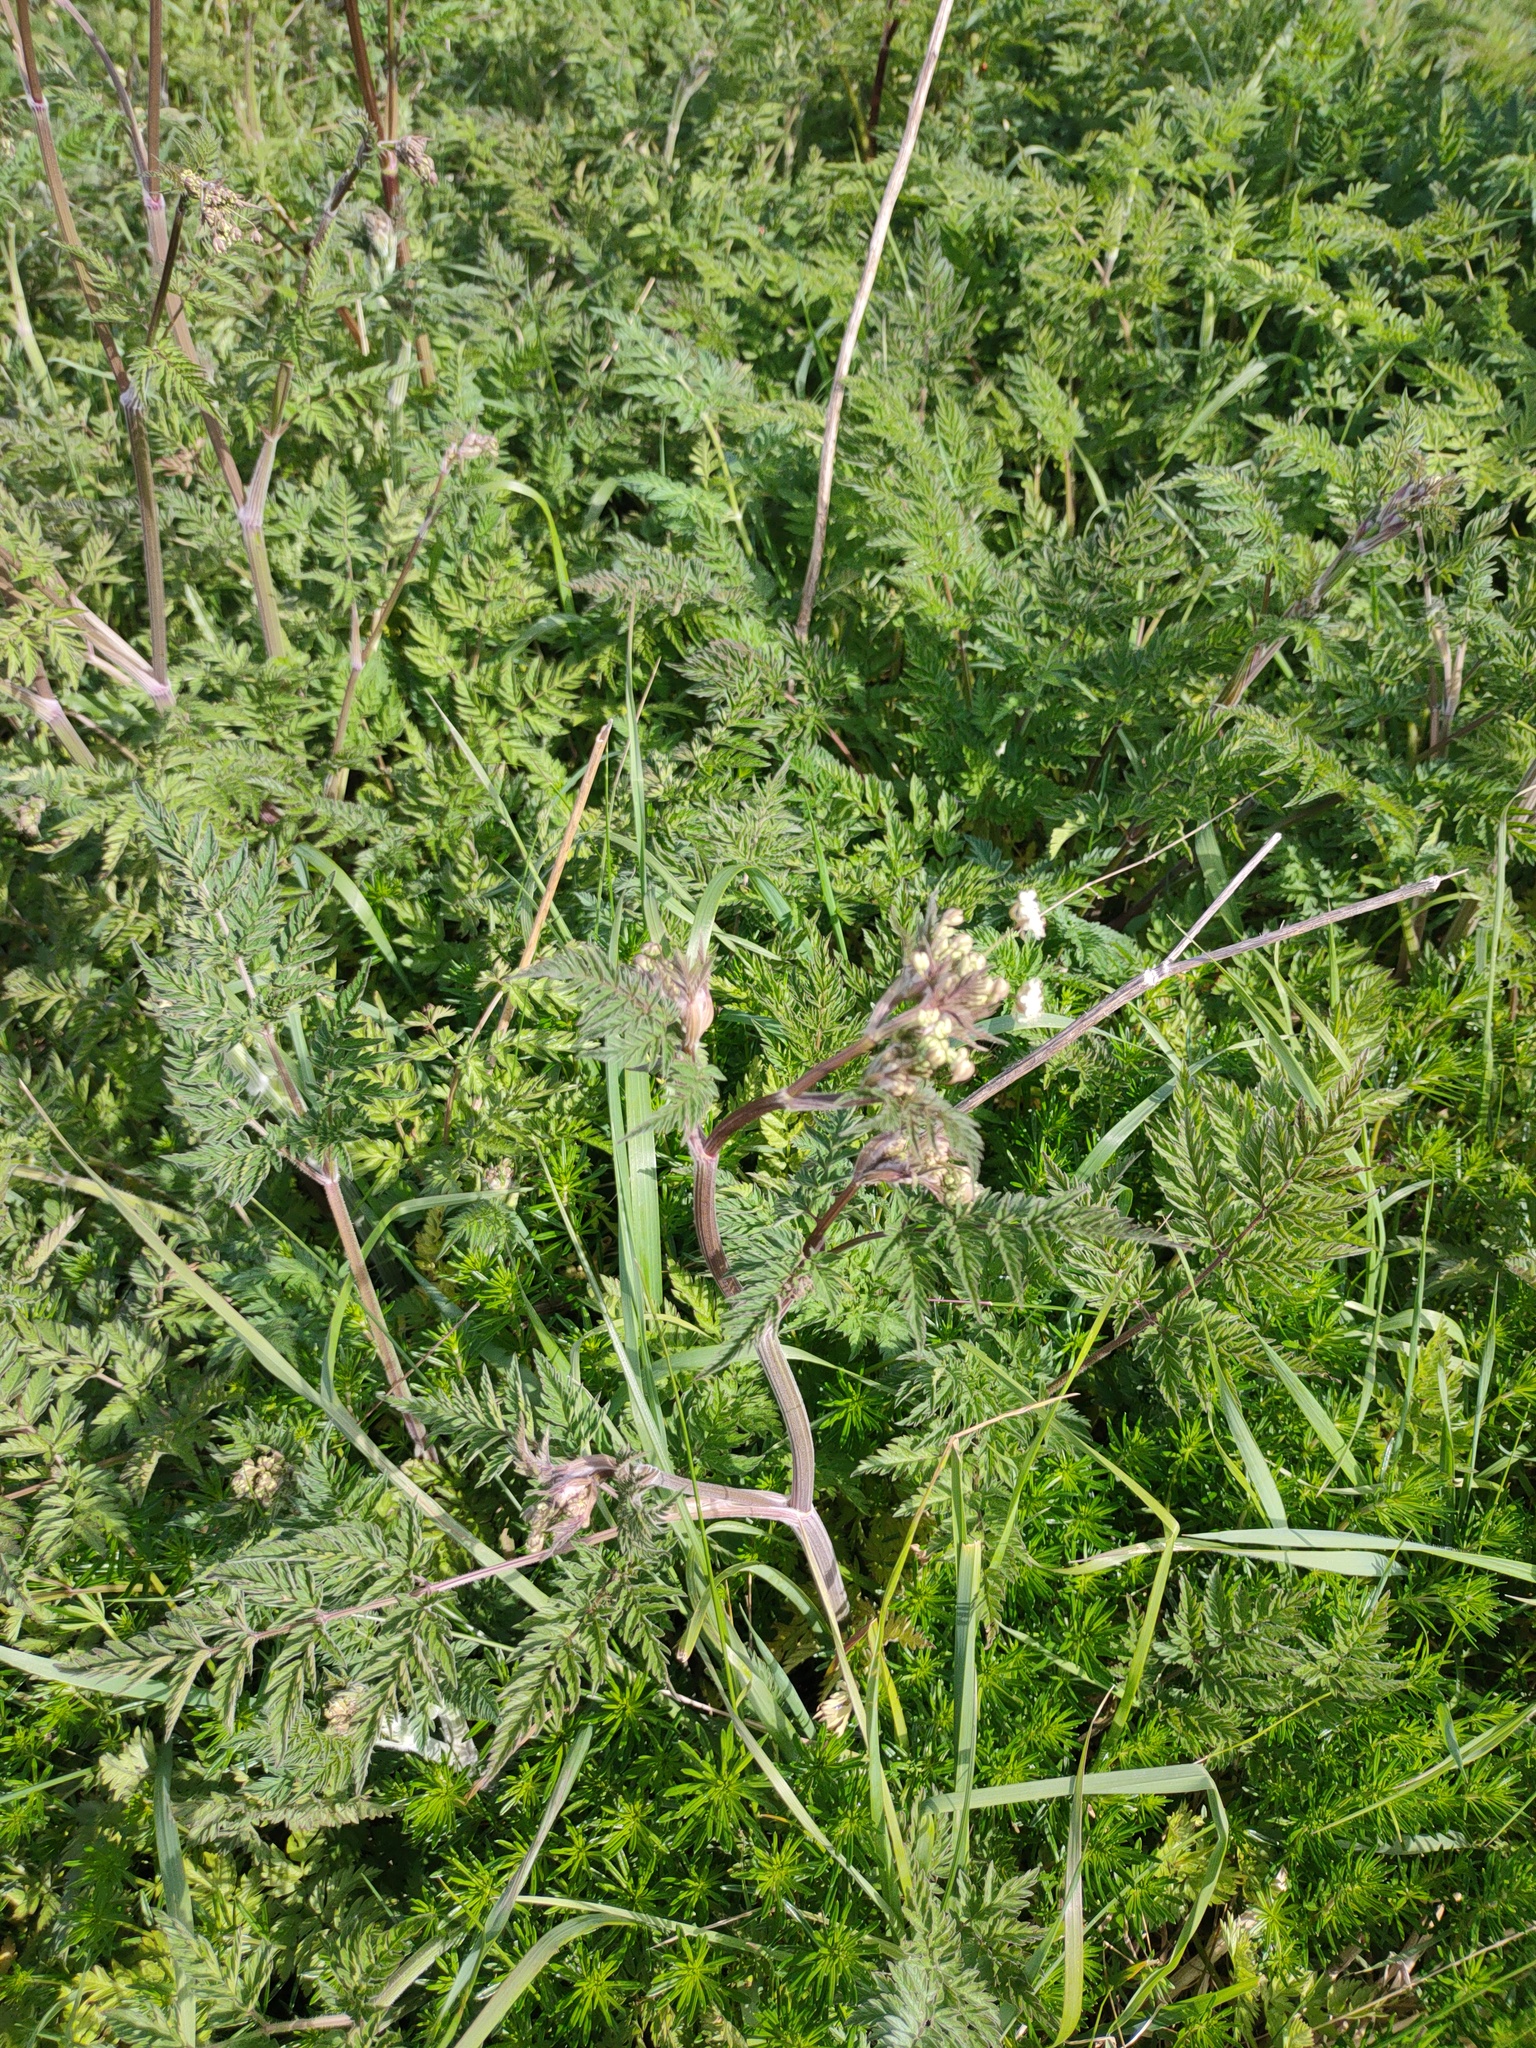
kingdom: Plantae
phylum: Tracheophyta
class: Magnoliopsida
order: Apiales
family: Apiaceae
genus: Anthriscus
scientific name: Anthriscus sylvestris
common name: Cow parsley
